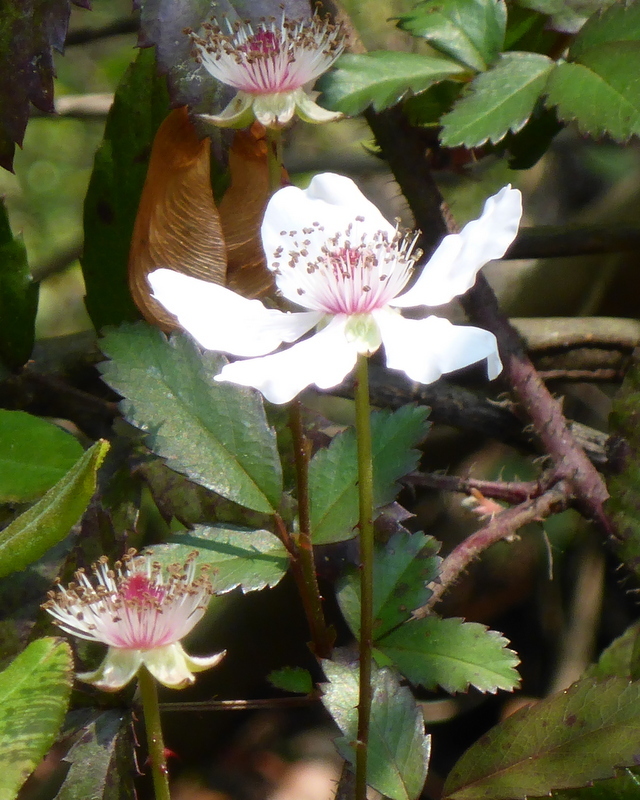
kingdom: Plantae
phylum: Tracheophyta
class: Magnoliopsida
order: Rosales
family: Rosaceae
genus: Rubus
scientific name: Rubus trivialis
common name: Southern dewberry
